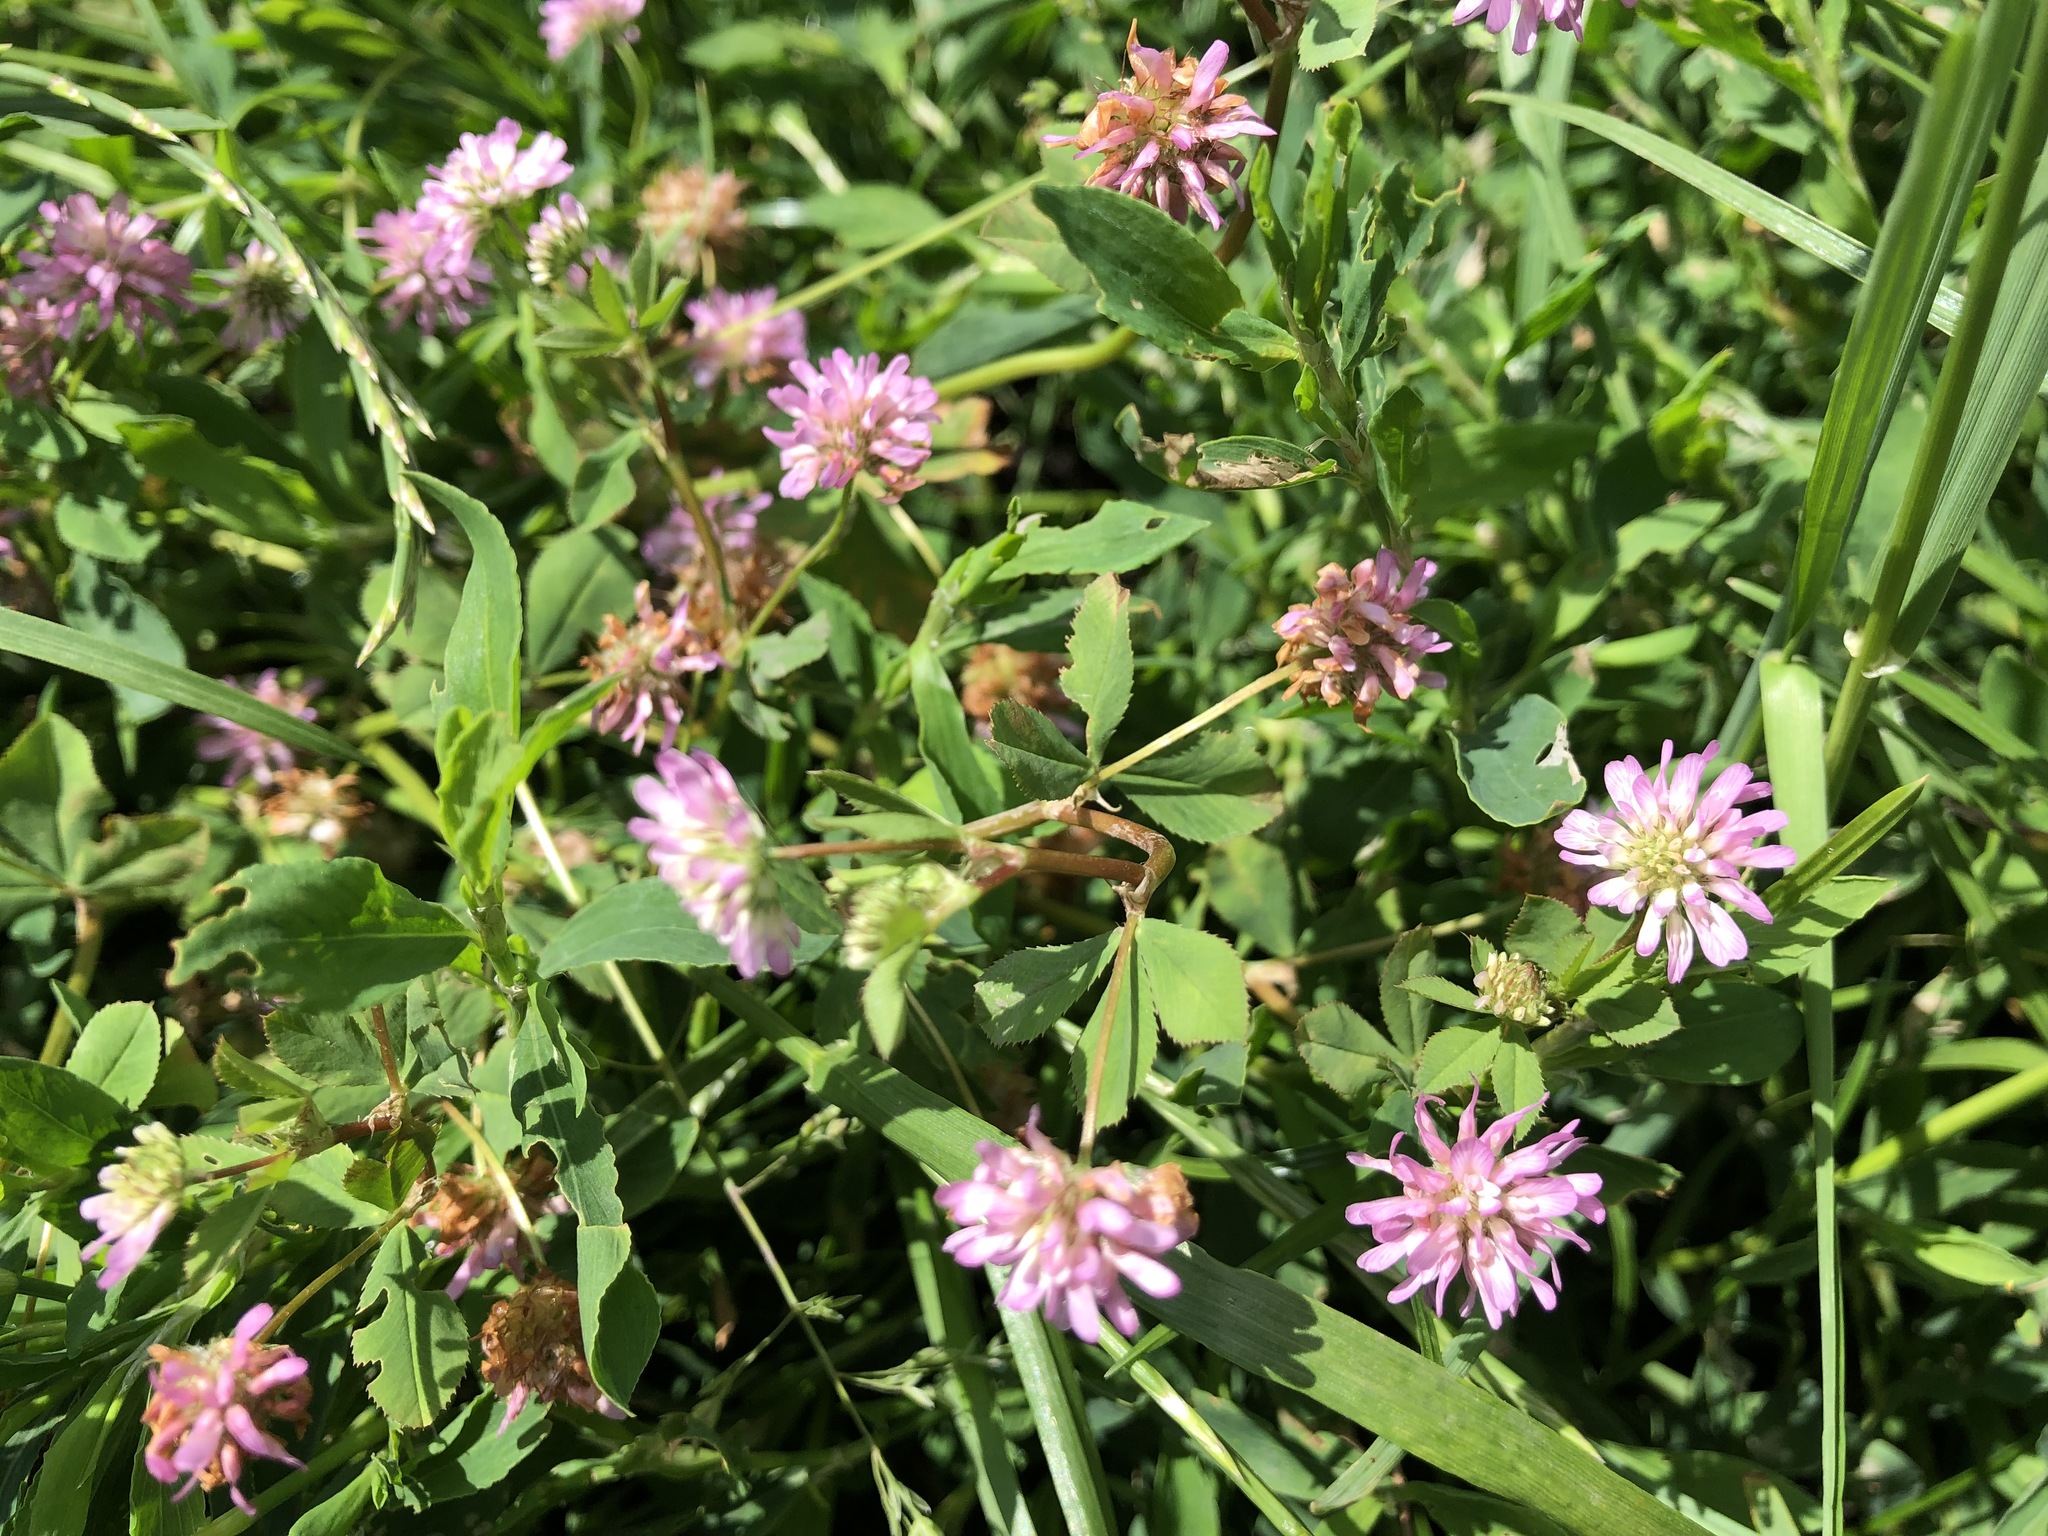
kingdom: Plantae
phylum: Tracheophyta
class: Magnoliopsida
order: Fabales
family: Fabaceae
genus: Trifolium
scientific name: Trifolium resupinatum
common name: Reversed clover
